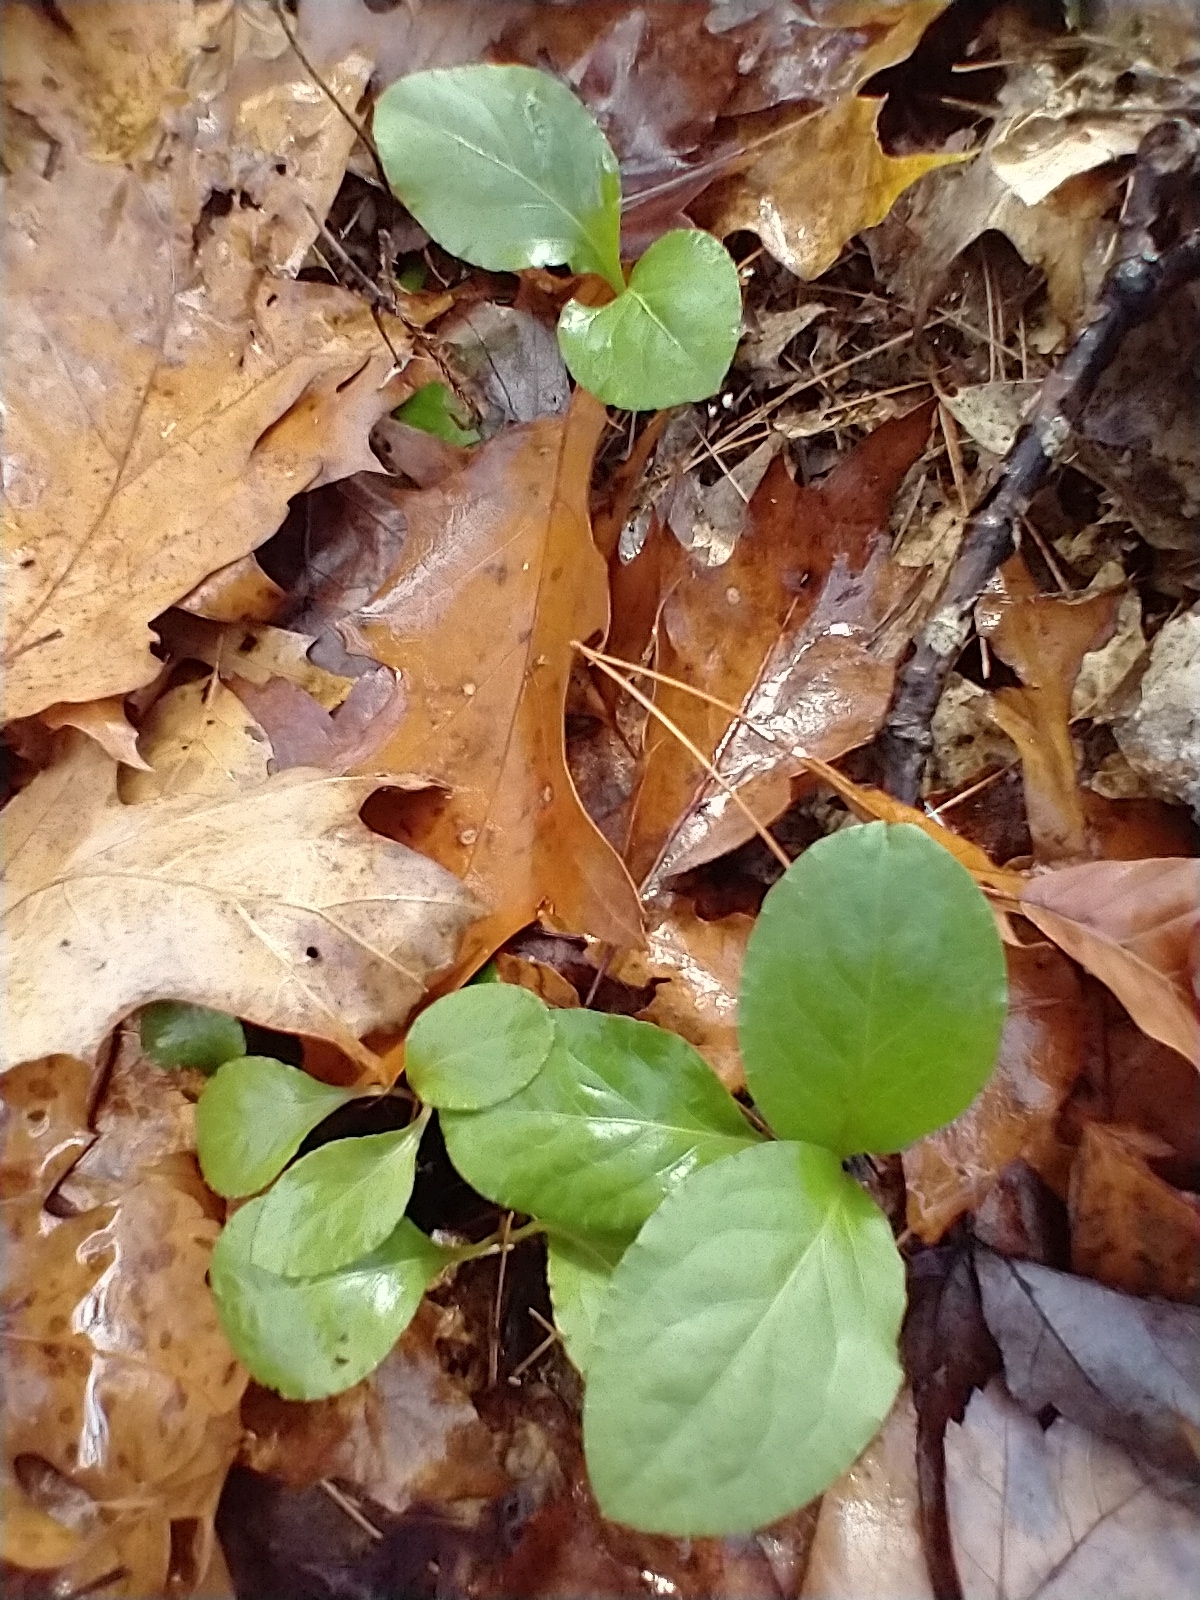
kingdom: Plantae
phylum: Tracheophyta
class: Magnoliopsida
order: Ericales
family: Ericaceae
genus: Pyrola
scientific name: Pyrola elliptica
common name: Shinleaf
